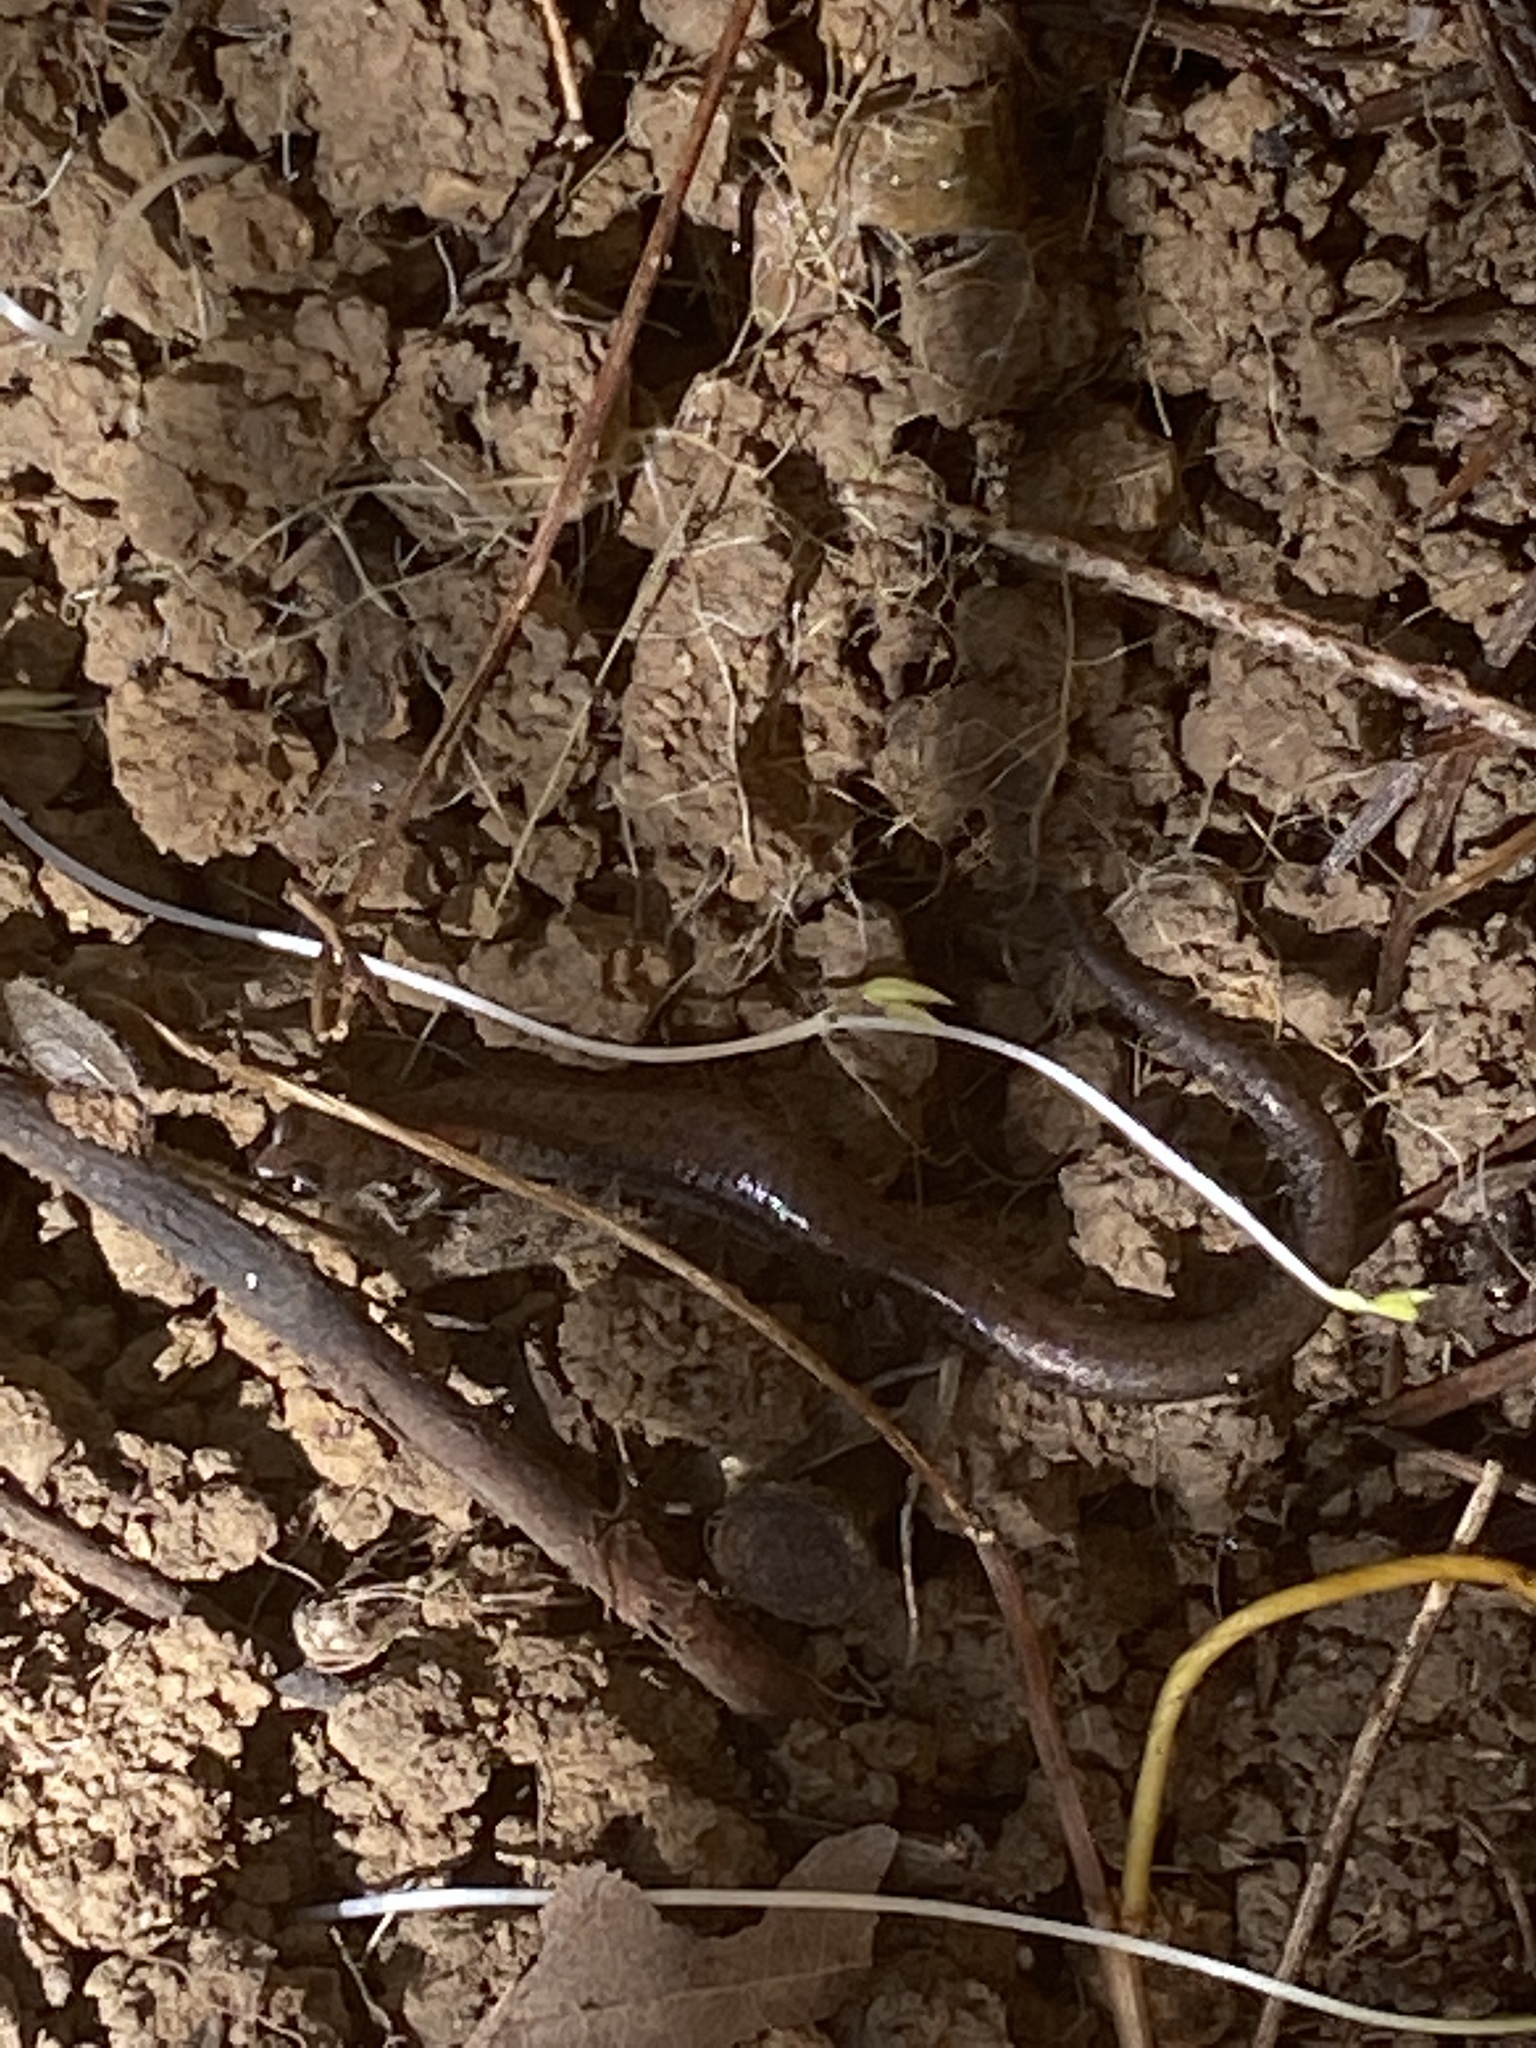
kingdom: Animalia
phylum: Chordata
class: Amphibia
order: Caudata
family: Plethodontidae
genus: Batrachoseps
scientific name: Batrachoseps attenuatus
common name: California slender salamander
